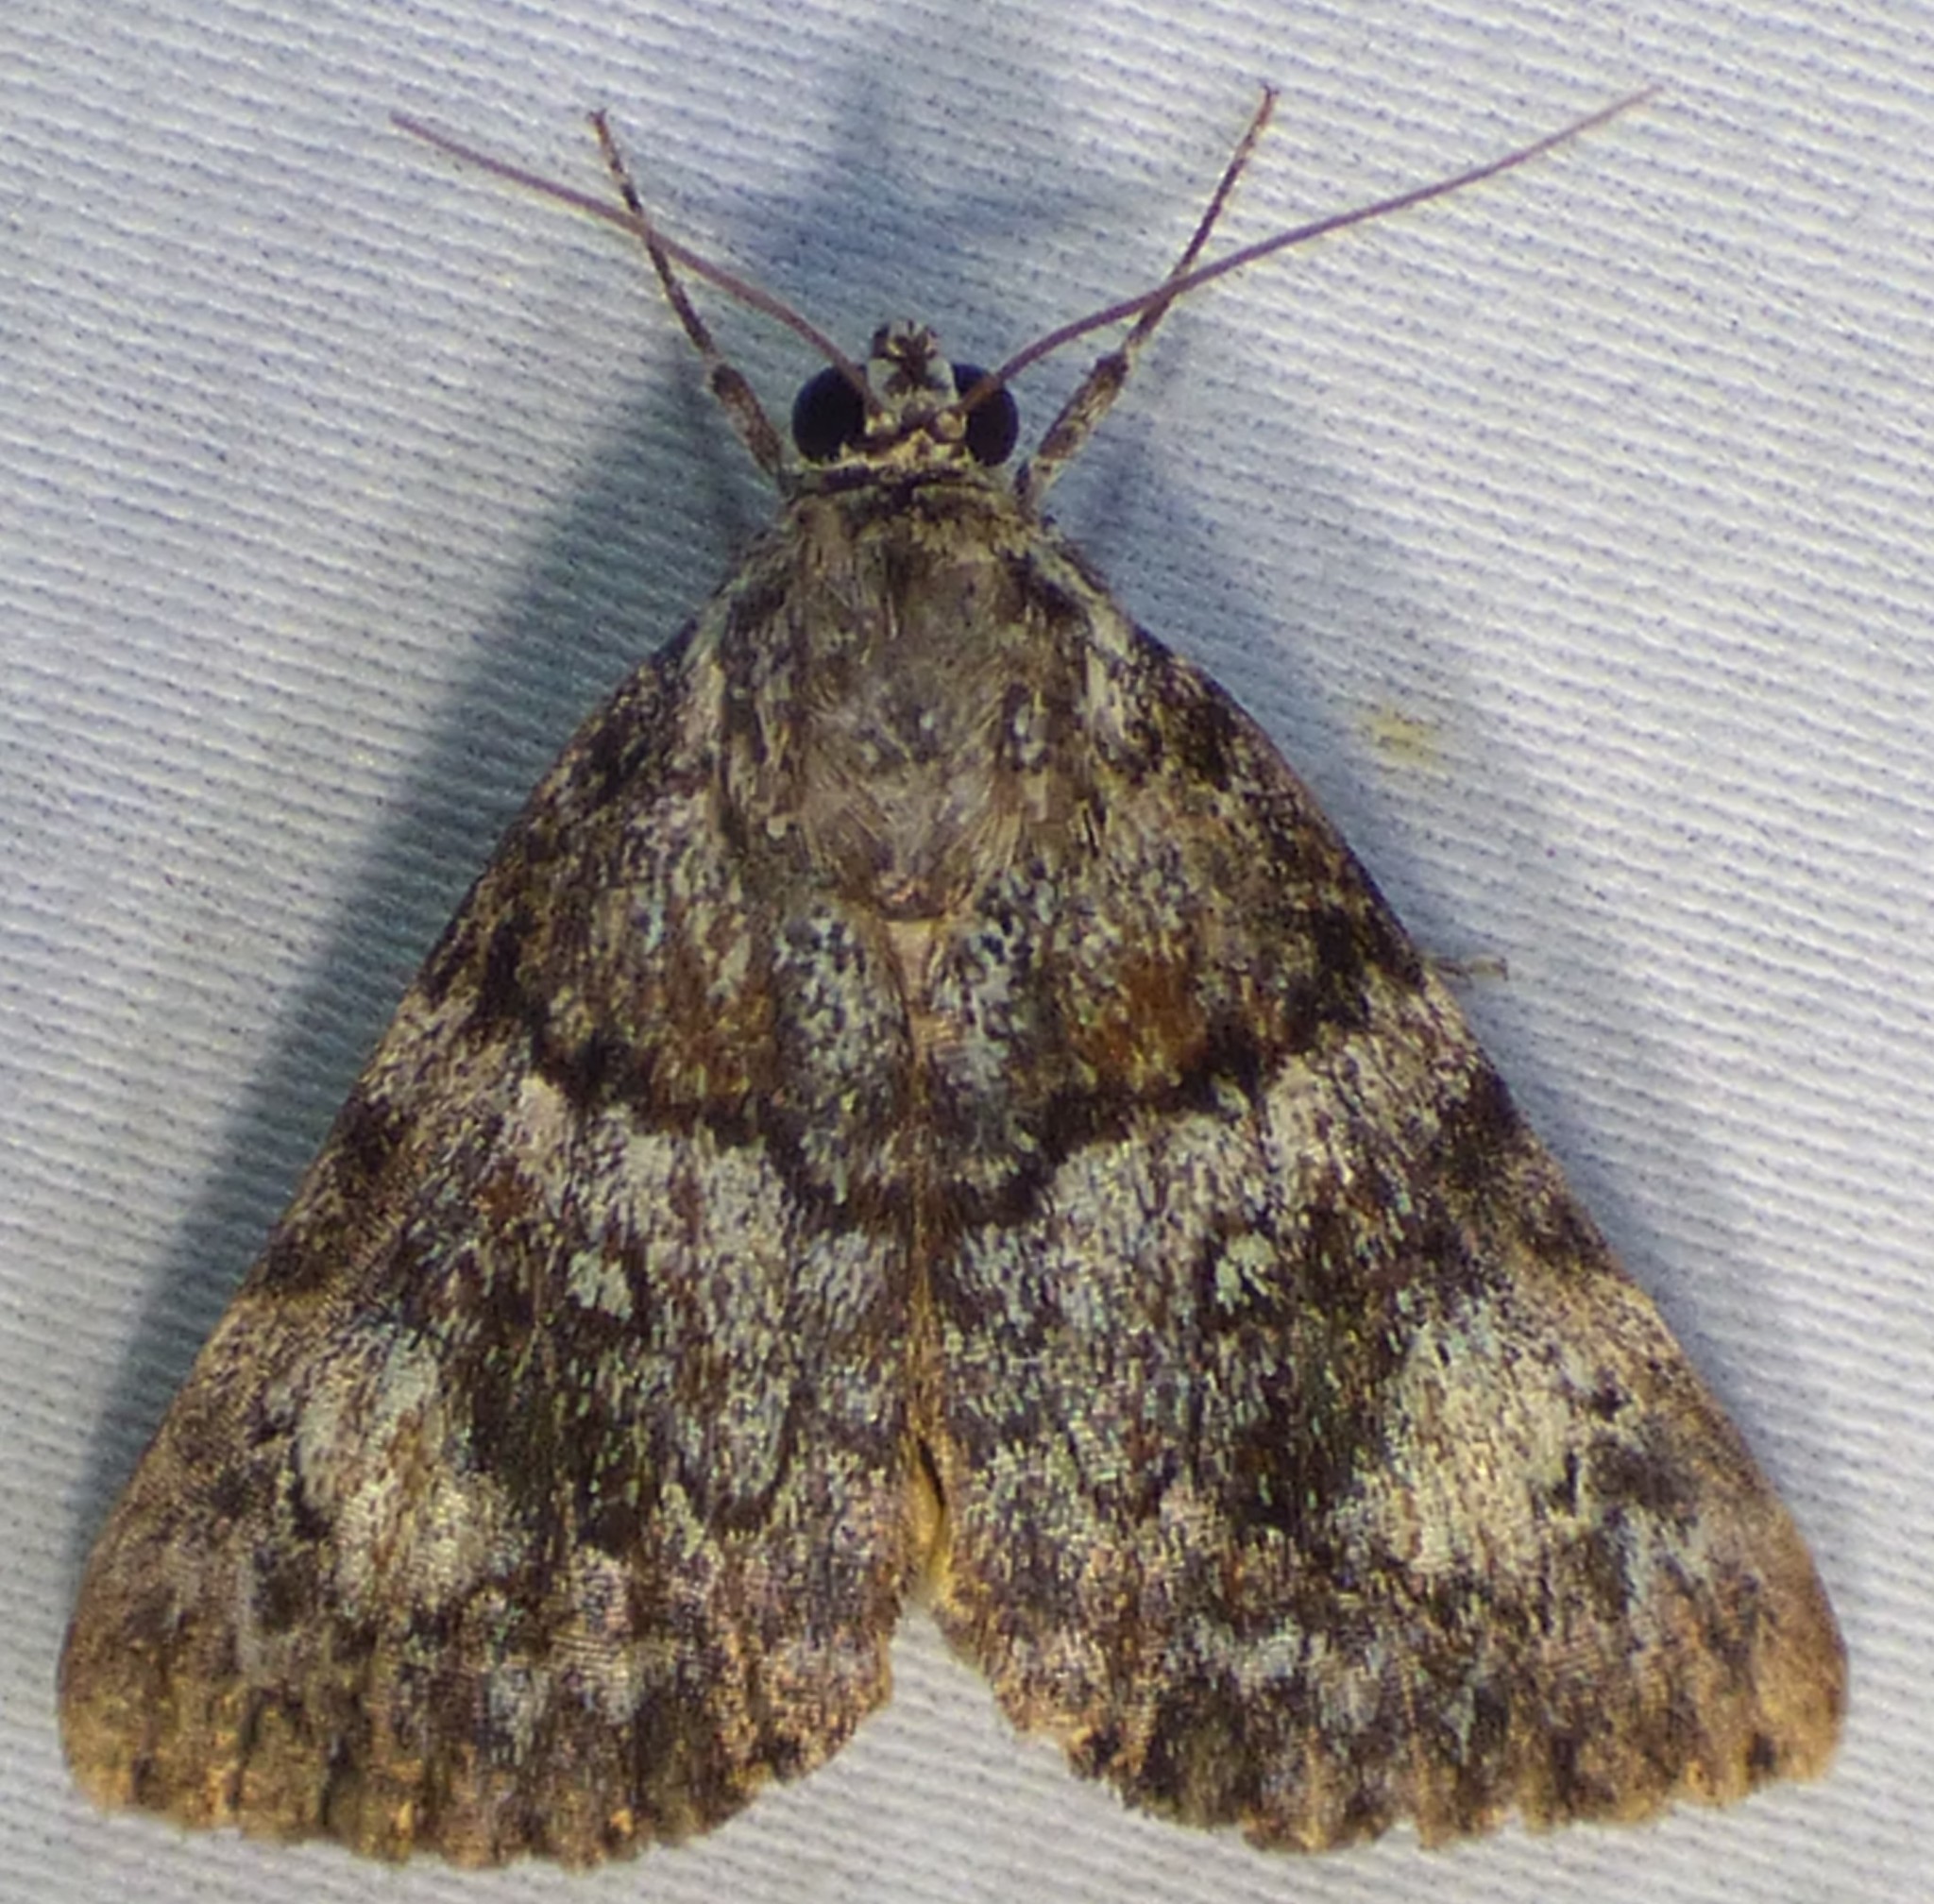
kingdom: Animalia
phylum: Arthropoda
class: Insecta
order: Lepidoptera
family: Erebidae
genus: Catocala
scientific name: Catocala lineella
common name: Little lined underwing
